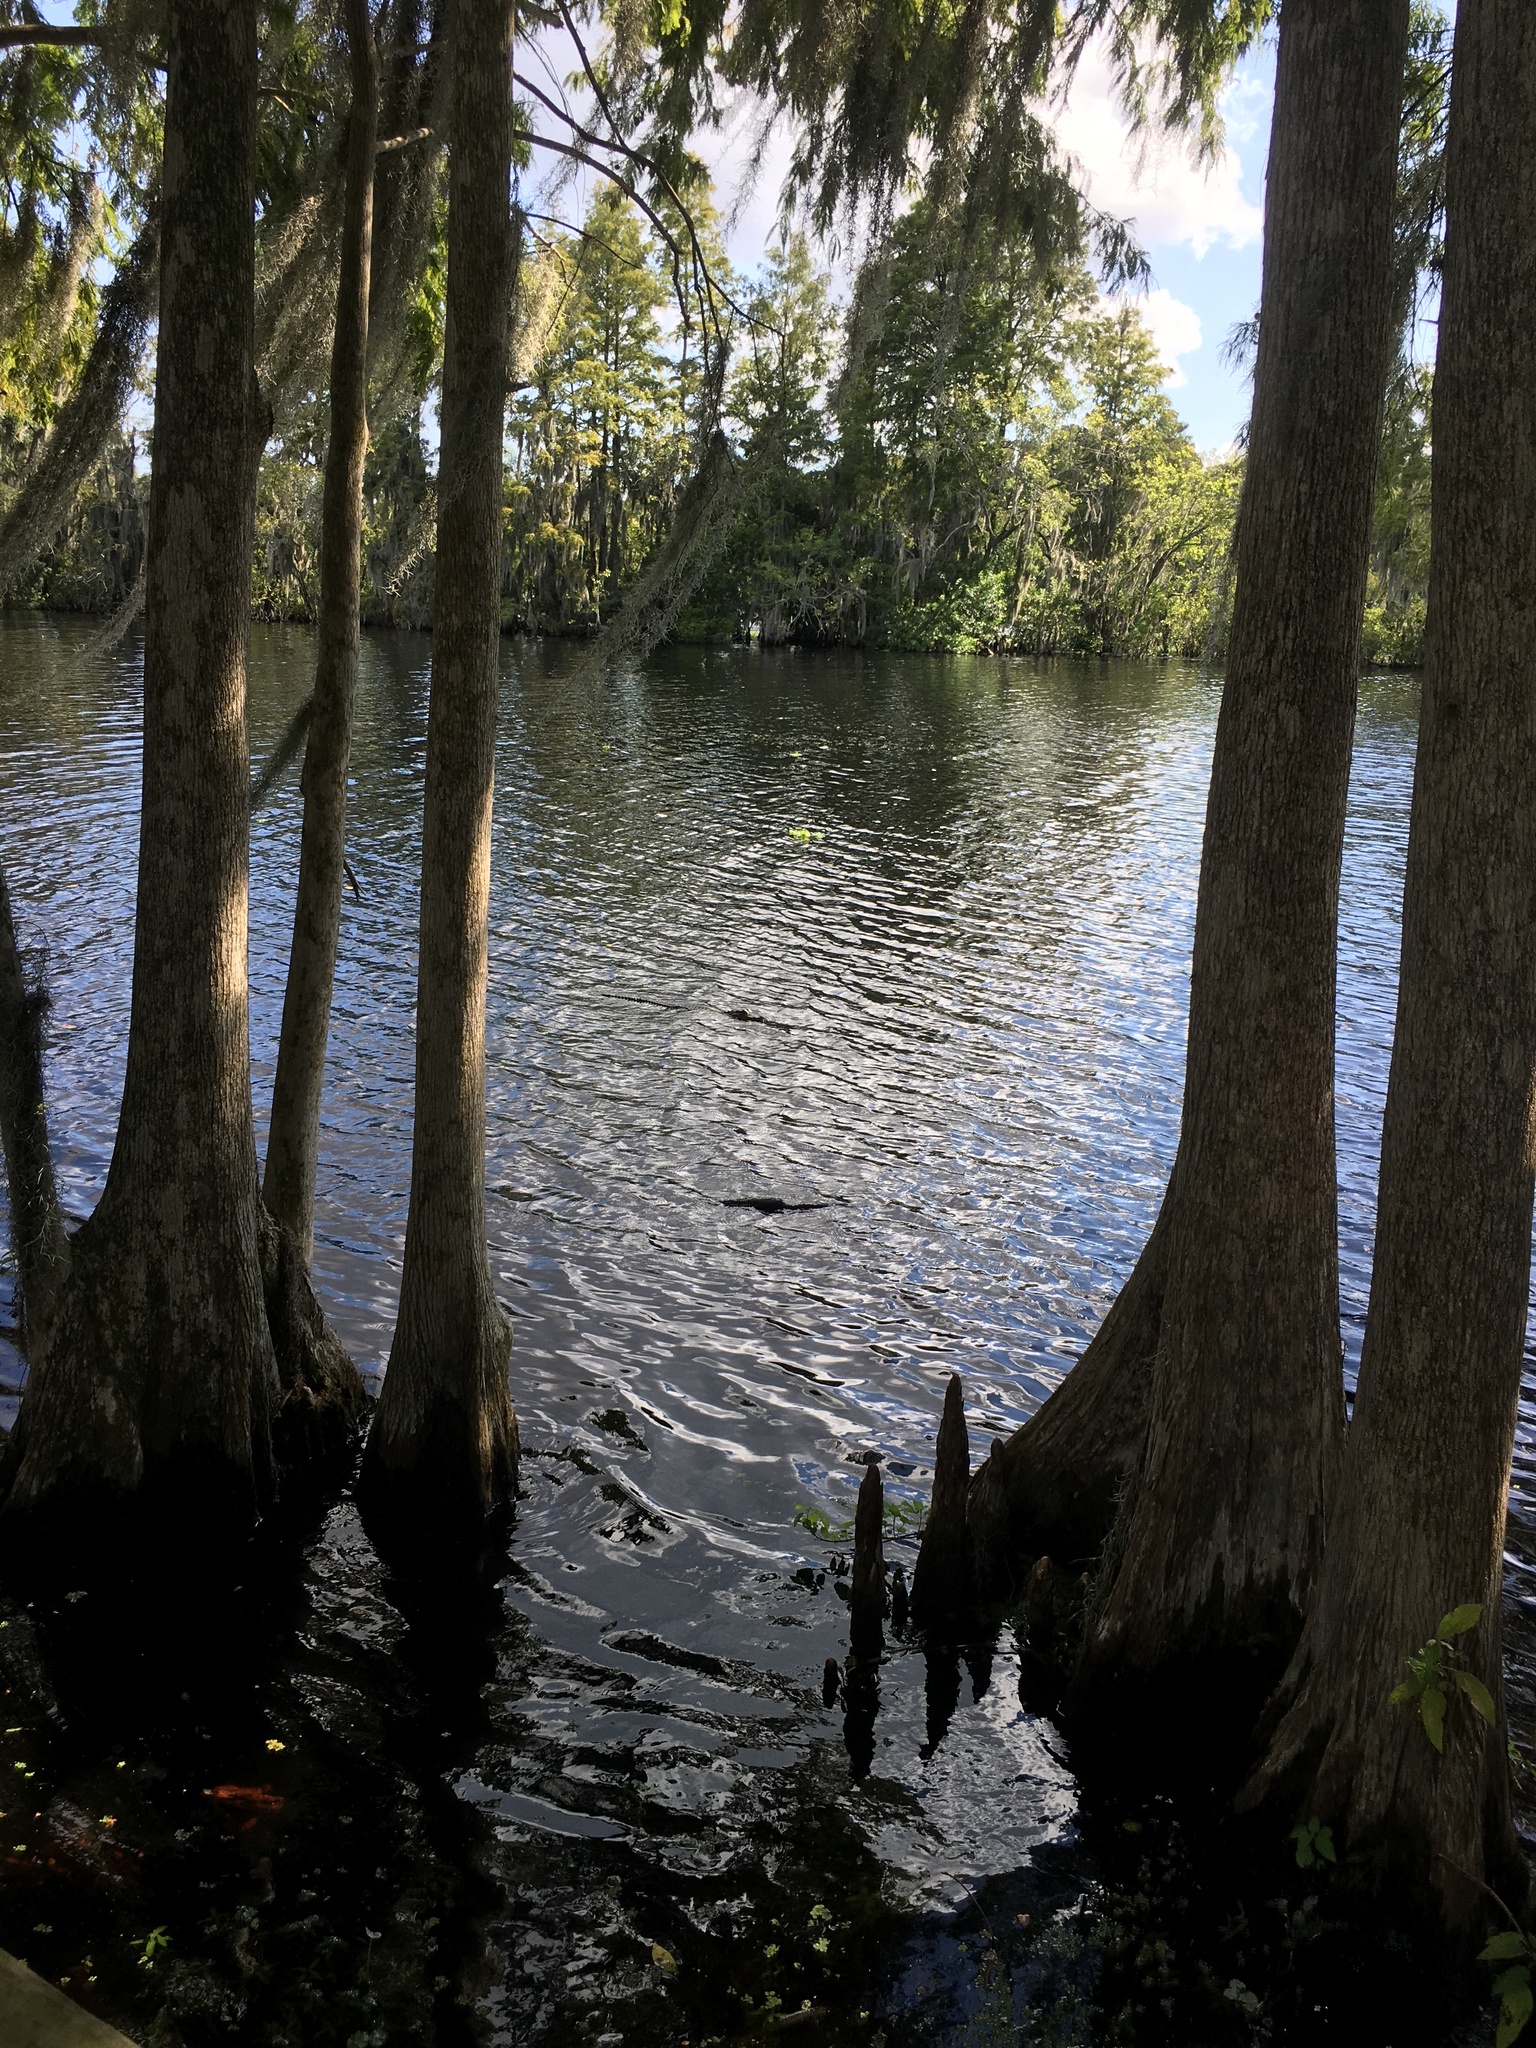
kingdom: Animalia
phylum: Chordata
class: Crocodylia
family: Alligatoridae
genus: Alligator
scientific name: Alligator mississippiensis
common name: American alligator
